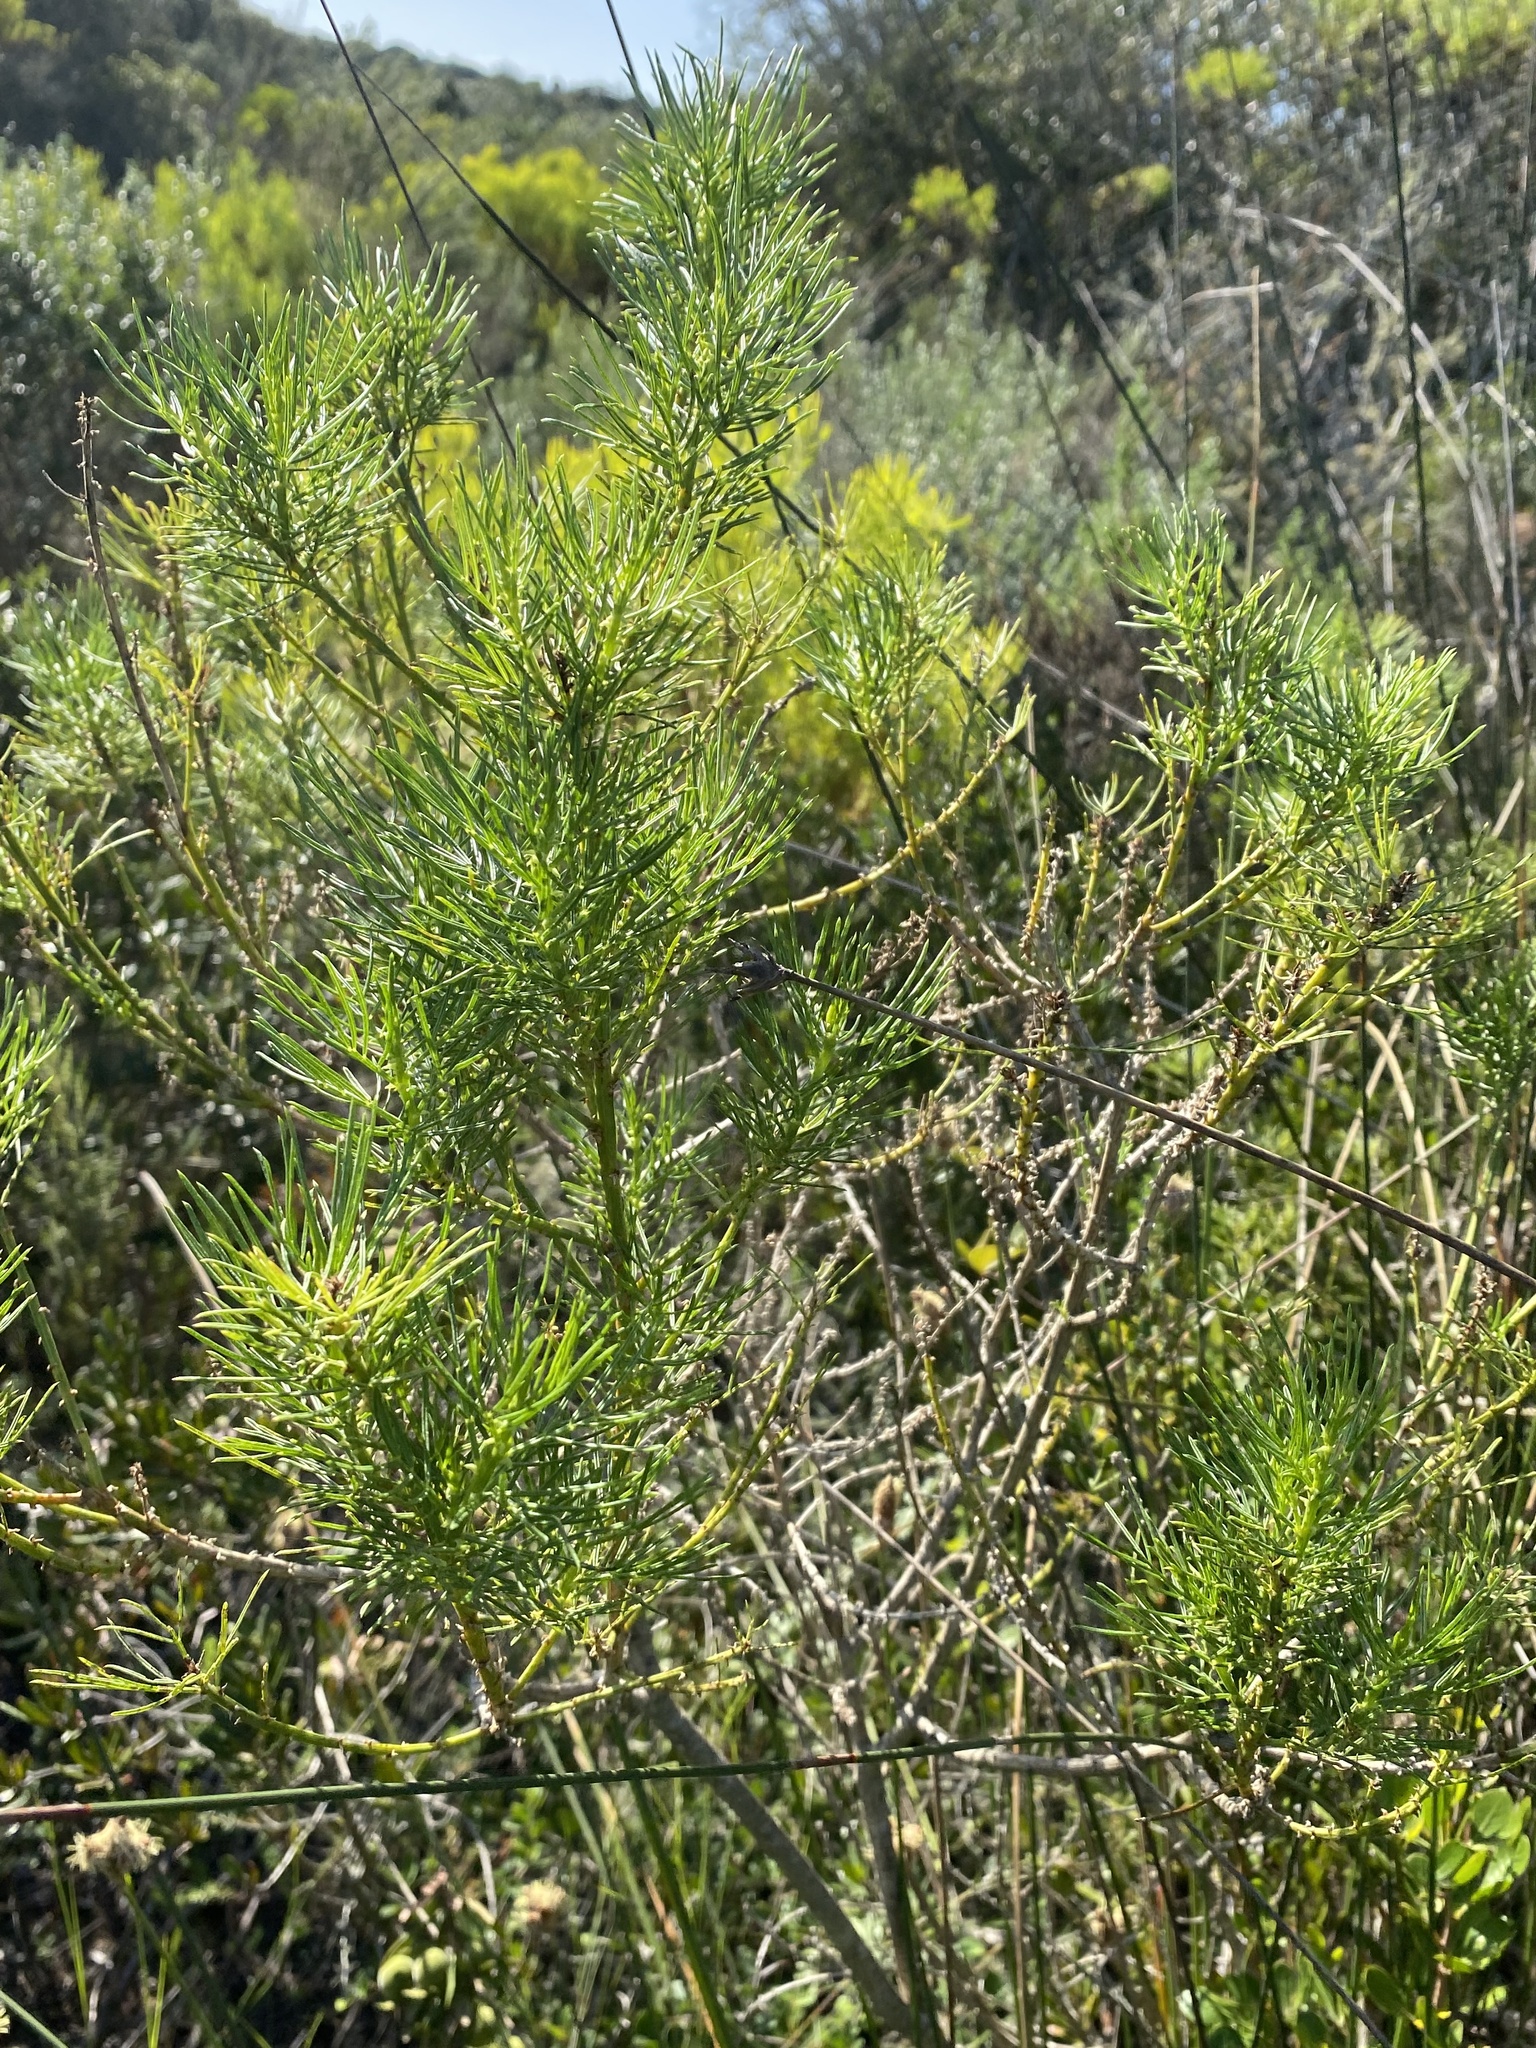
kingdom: Plantae
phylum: Tracheophyta
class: Magnoliopsida
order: Fabales
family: Fabaceae
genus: Psoralea
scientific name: Psoralea brilliantissima
